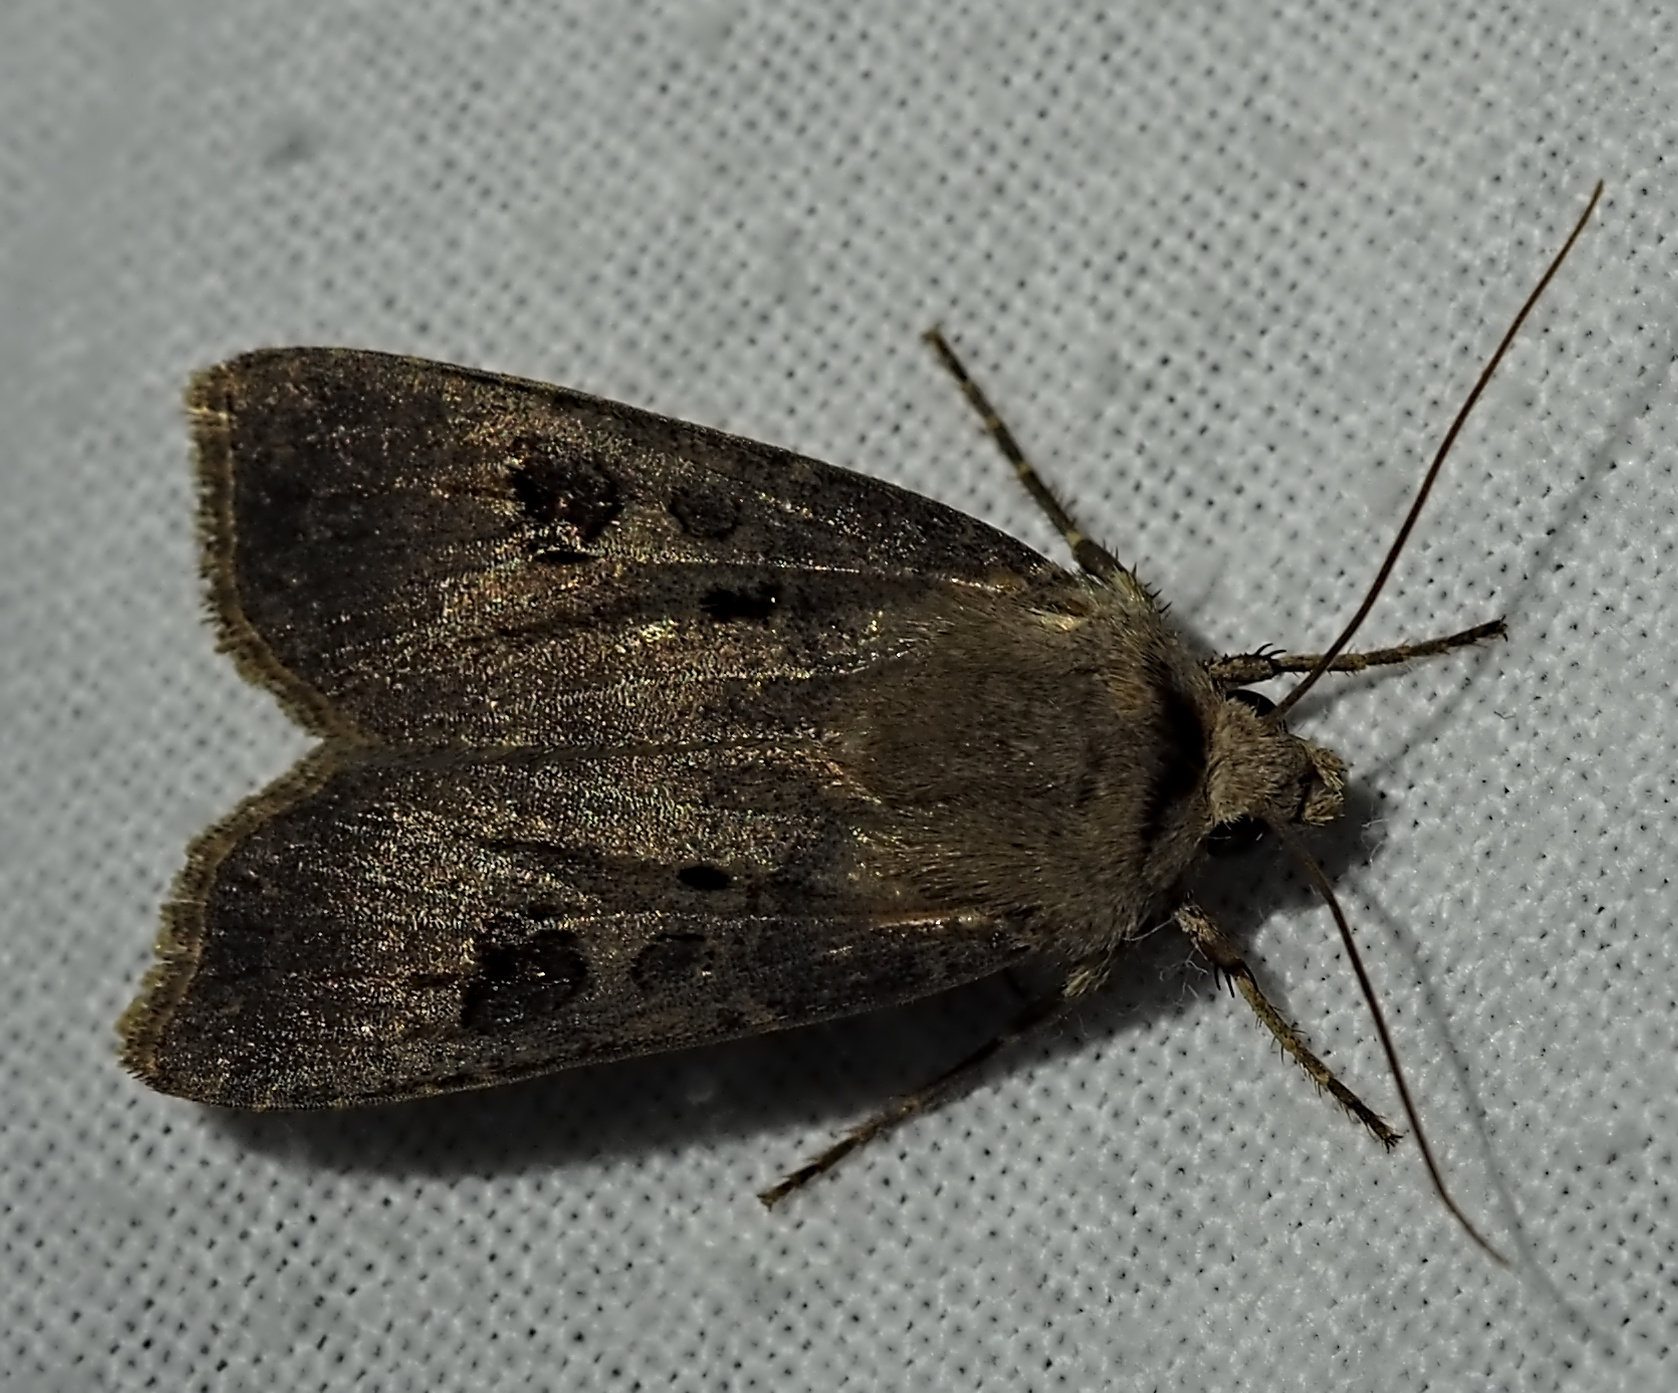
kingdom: Animalia
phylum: Arthropoda
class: Insecta
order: Lepidoptera
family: Noctuidae
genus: Agrotis
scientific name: Agrotis exclamationis
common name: Heart and dart
